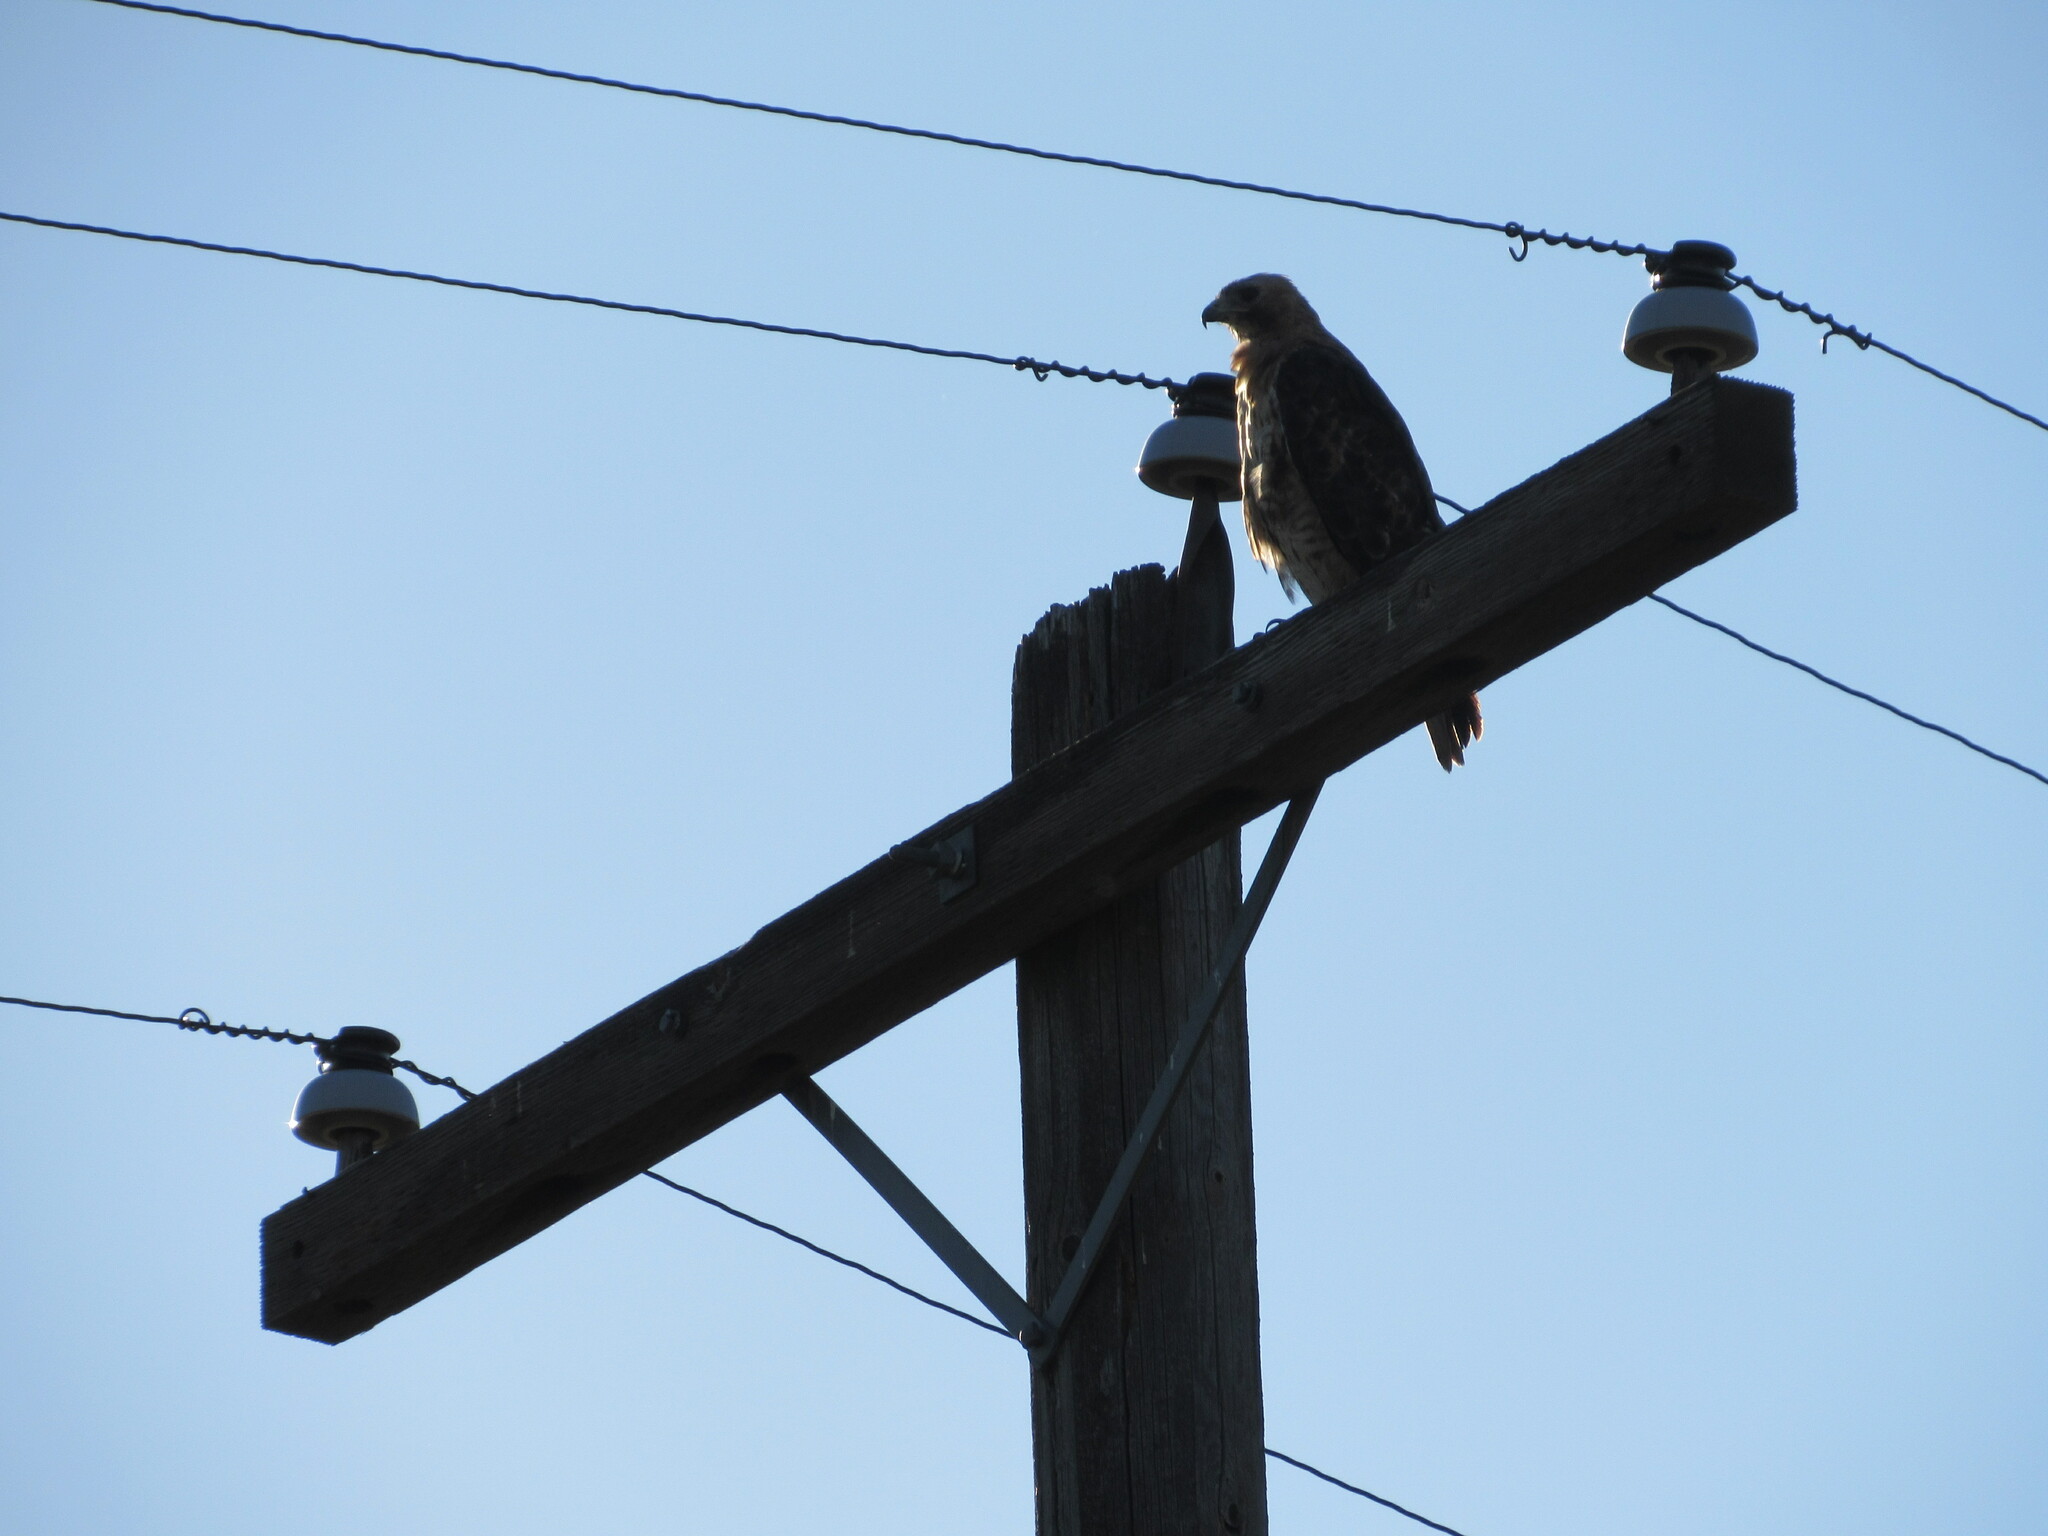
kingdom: Animalia
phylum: Chordata
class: Aves
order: Accipitriformes
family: Accipitridae
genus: Buteo
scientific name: Buteo jamaicensis
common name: Red-tailed hawk
